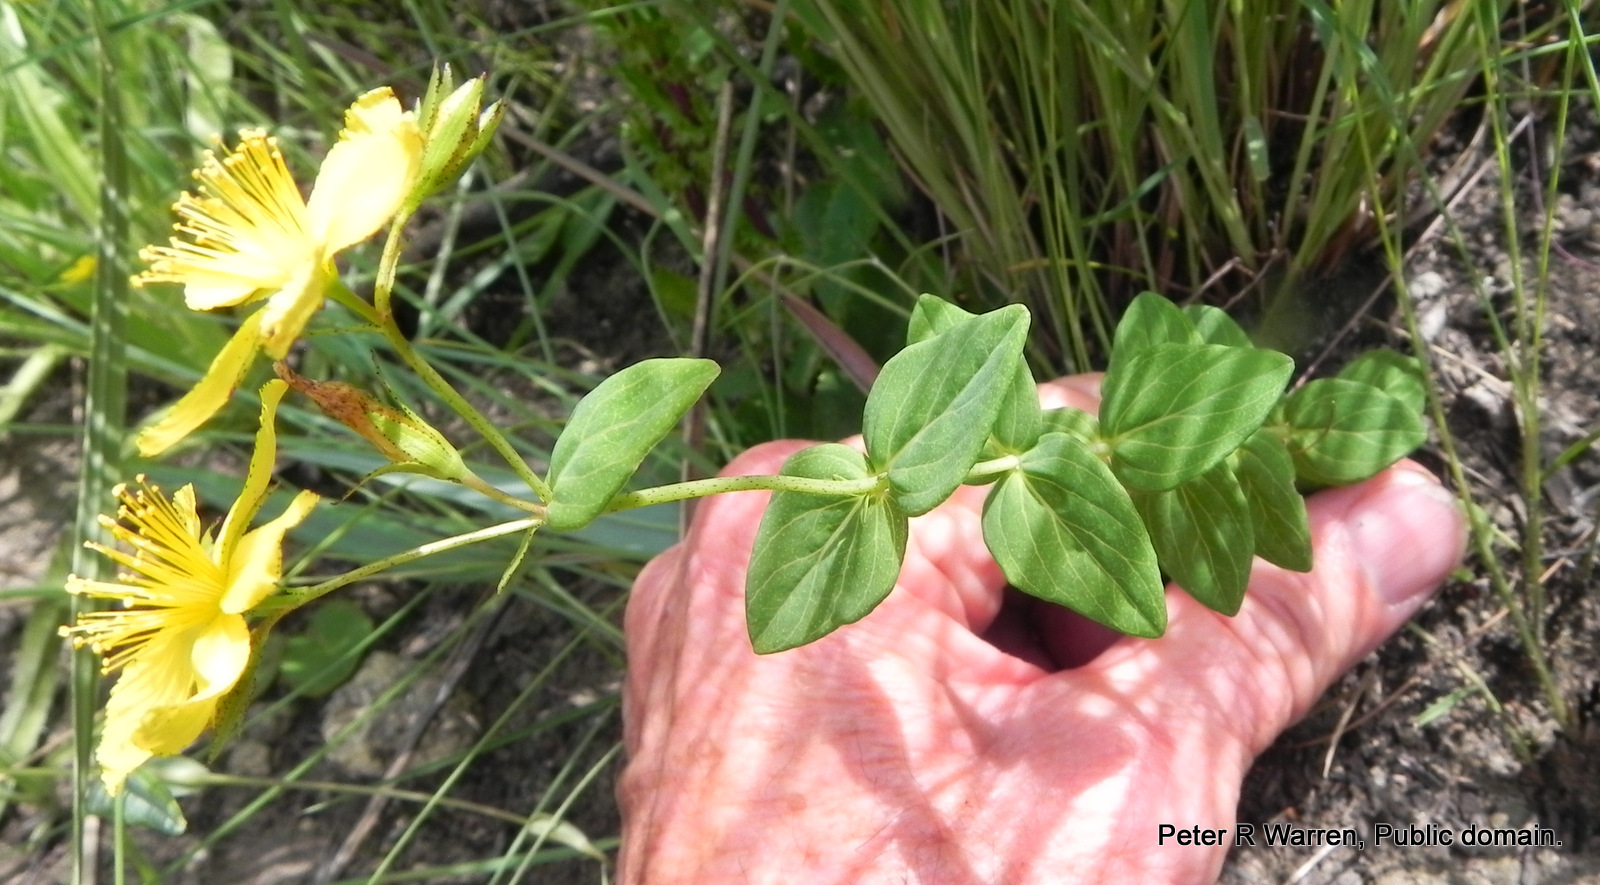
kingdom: Plantae
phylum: Tracheophyta
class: Magnoliopsida
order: Malpighiales
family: Hypericaceae
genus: Hypericum
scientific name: Hypericum aethiopicum
